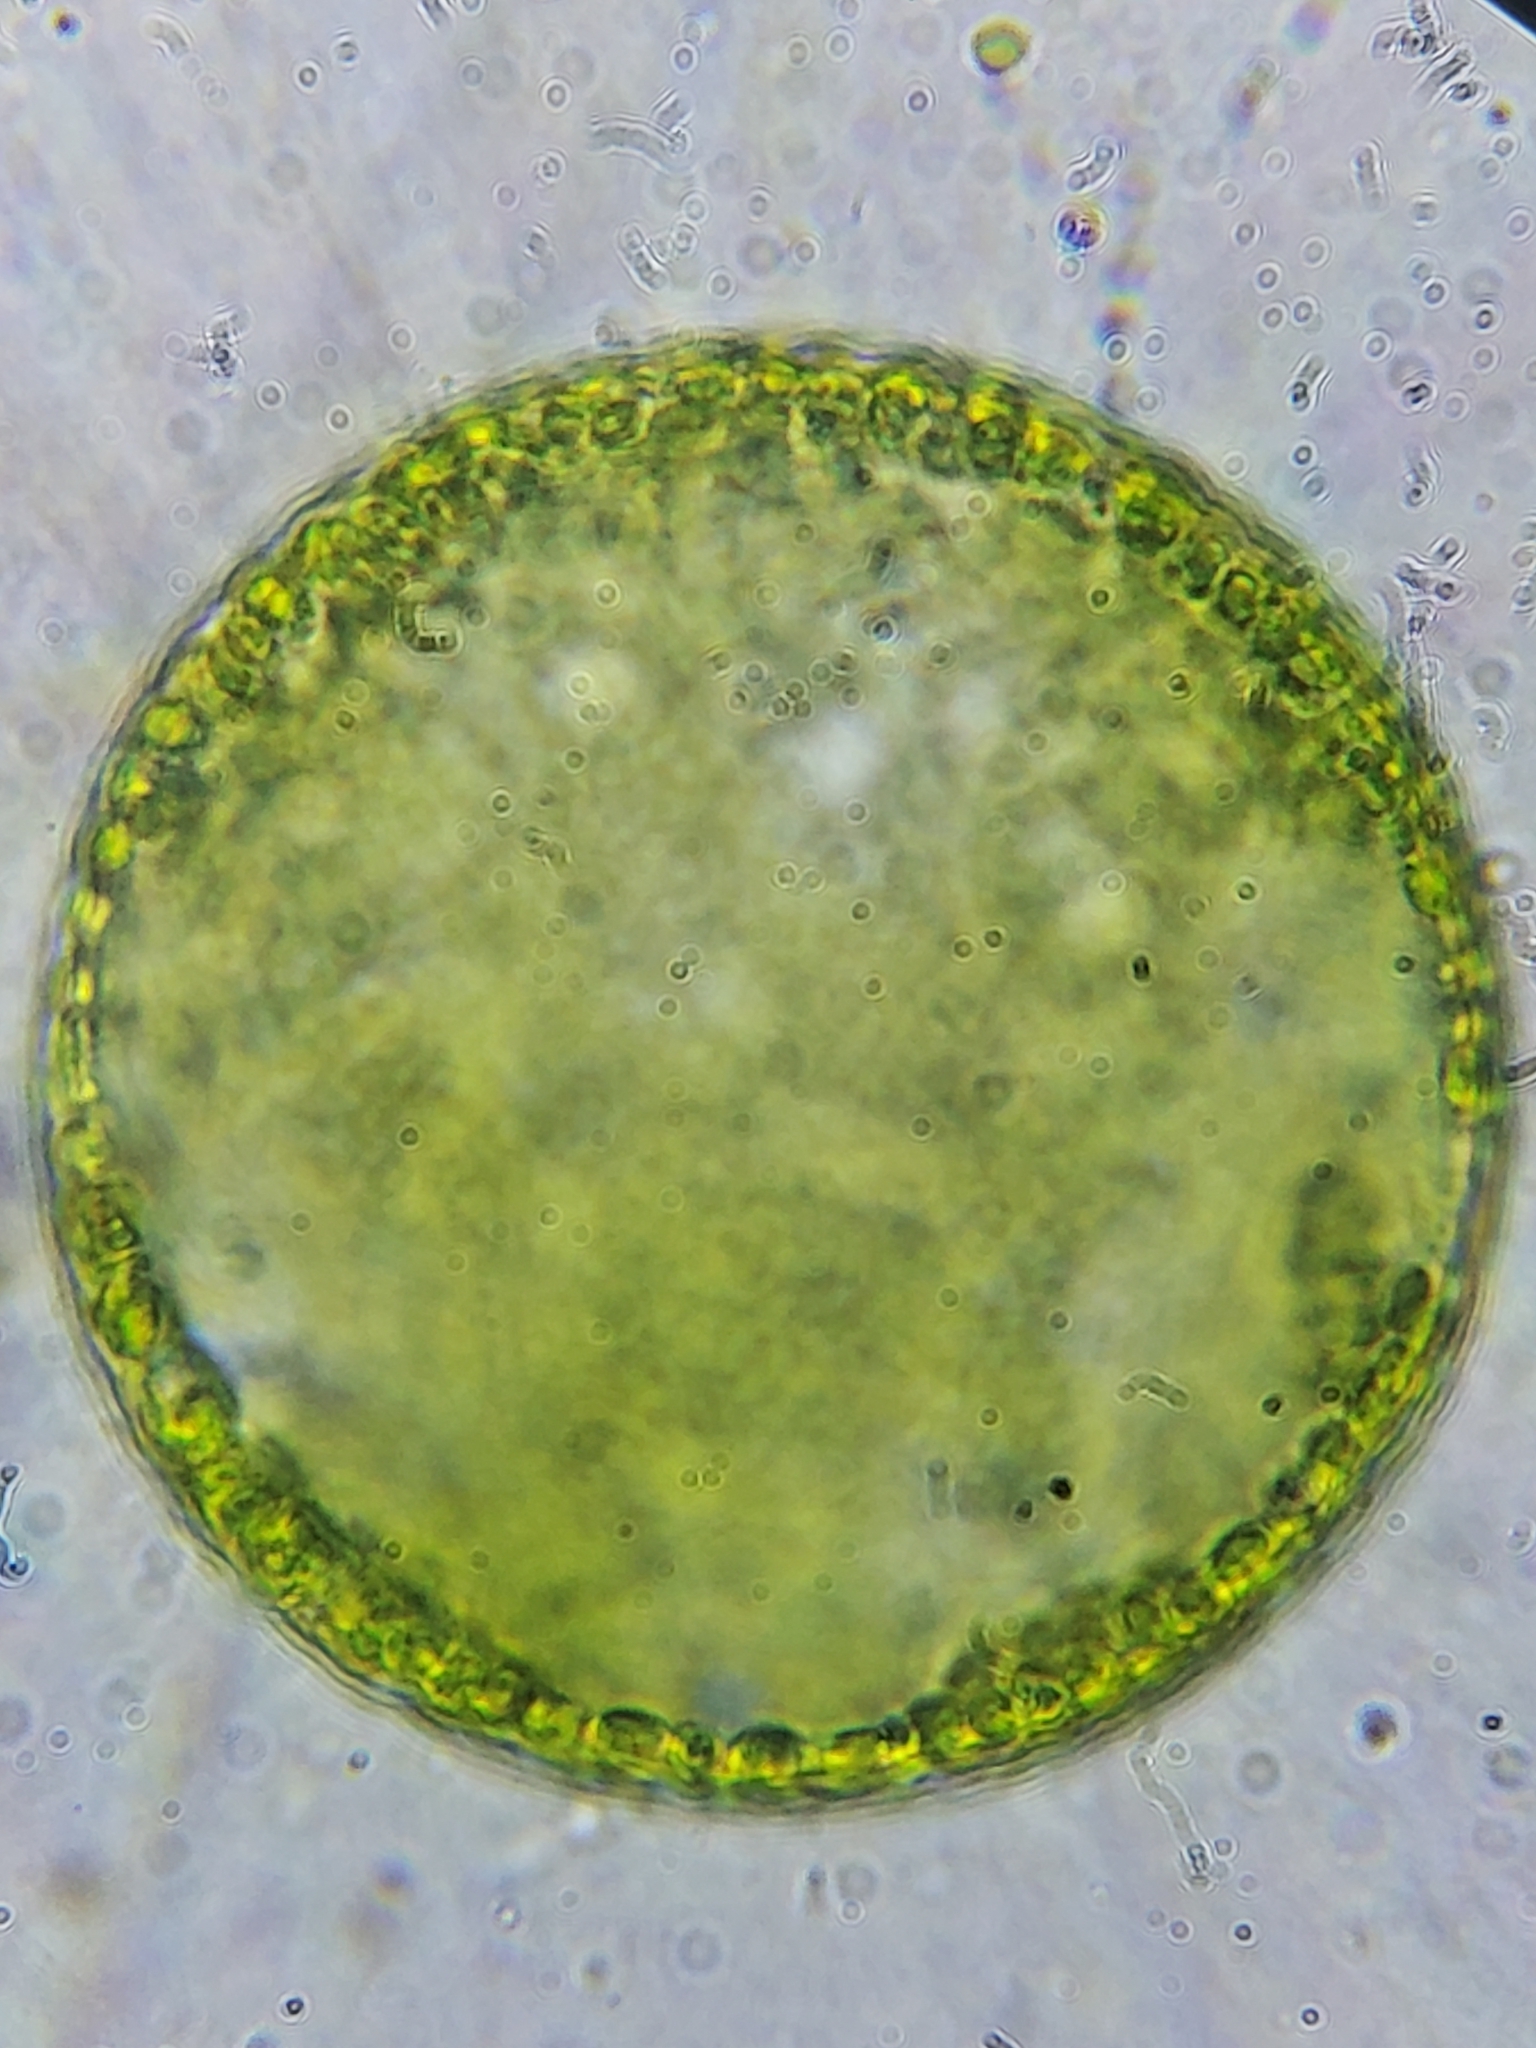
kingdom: Chromista
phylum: Ochrophyta
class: Xanthophyceae
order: Vaucheriales
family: Vaucheriaceae
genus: Vaucheria
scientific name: Vaucheria
